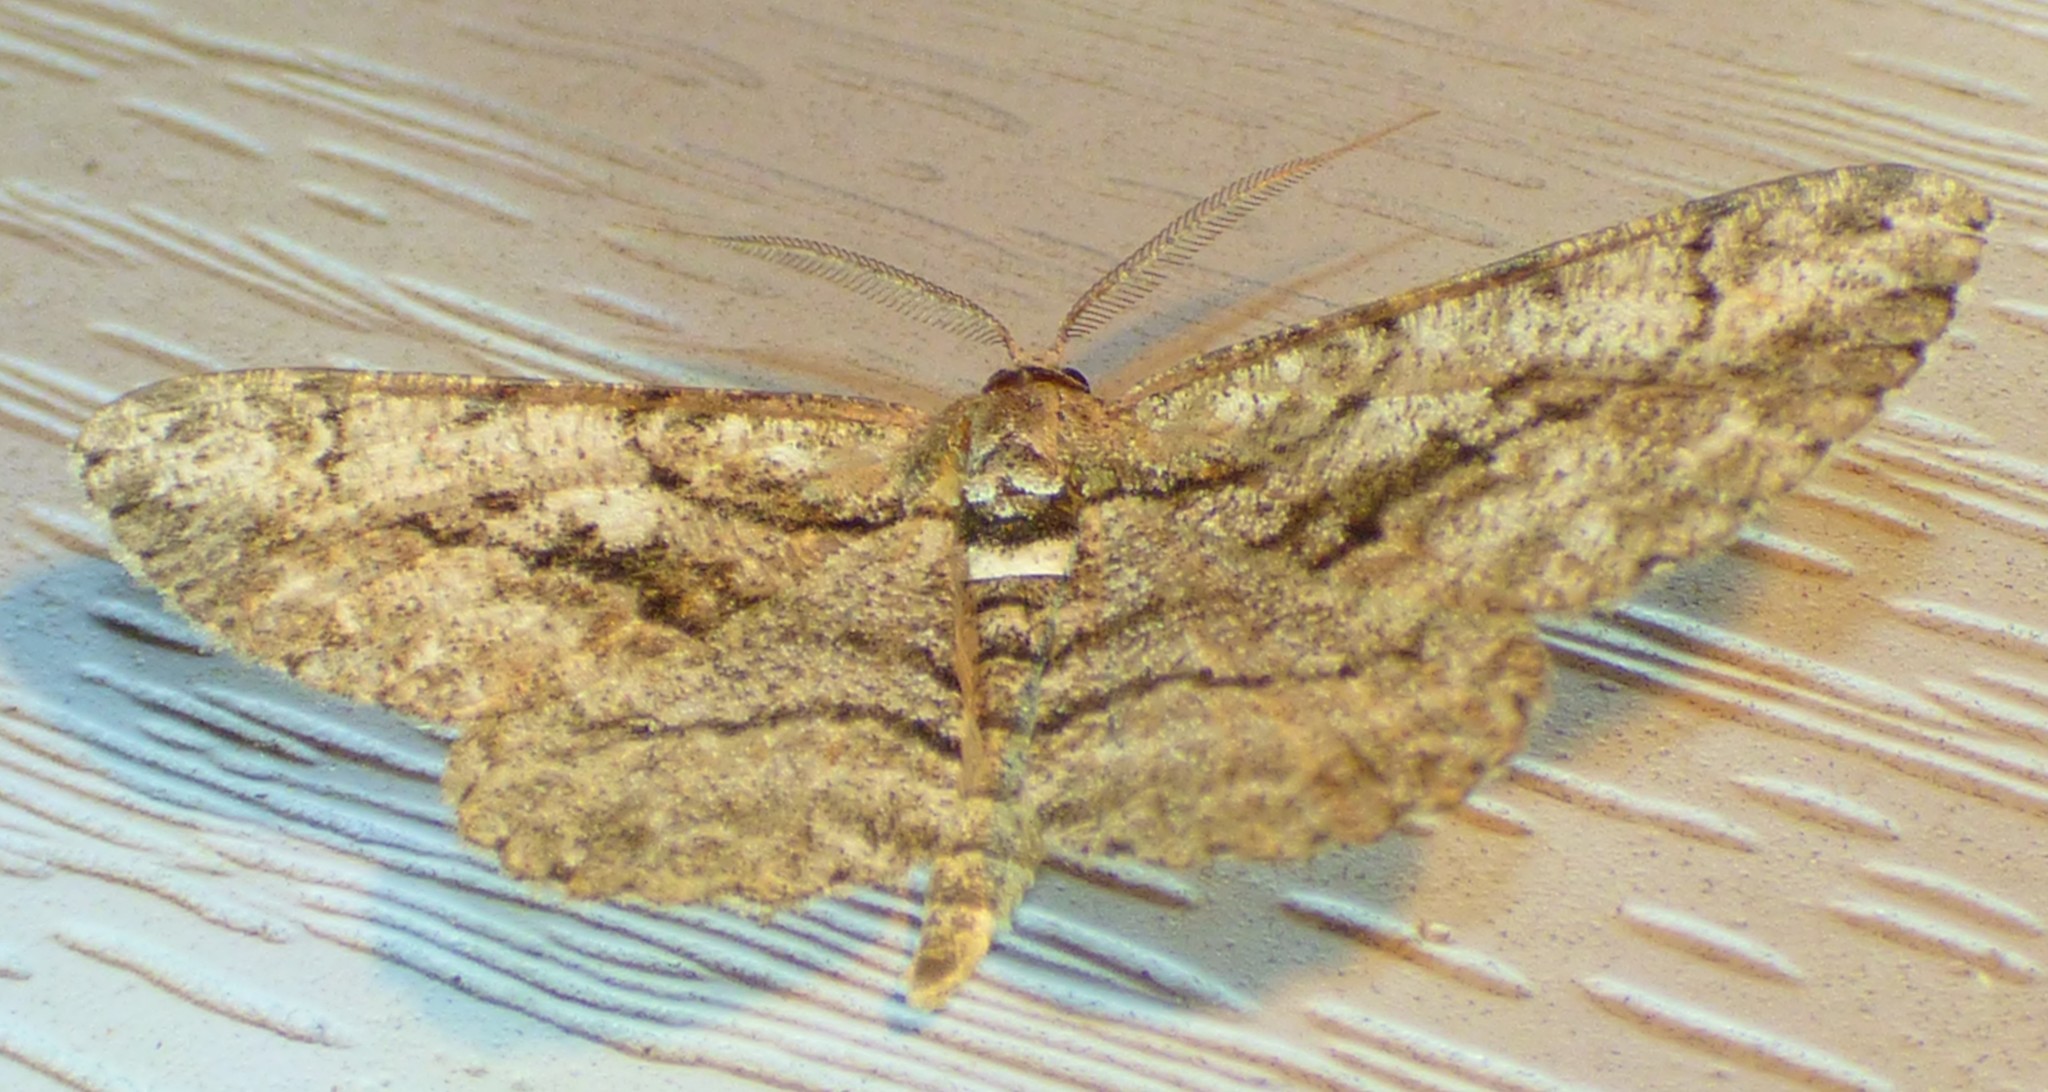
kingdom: Animalia
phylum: Arthropoda
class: Insecta
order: Lepidoptera
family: Geometridae
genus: Anavitrinella
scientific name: Anavitrinella pampinaria
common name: Common gray
